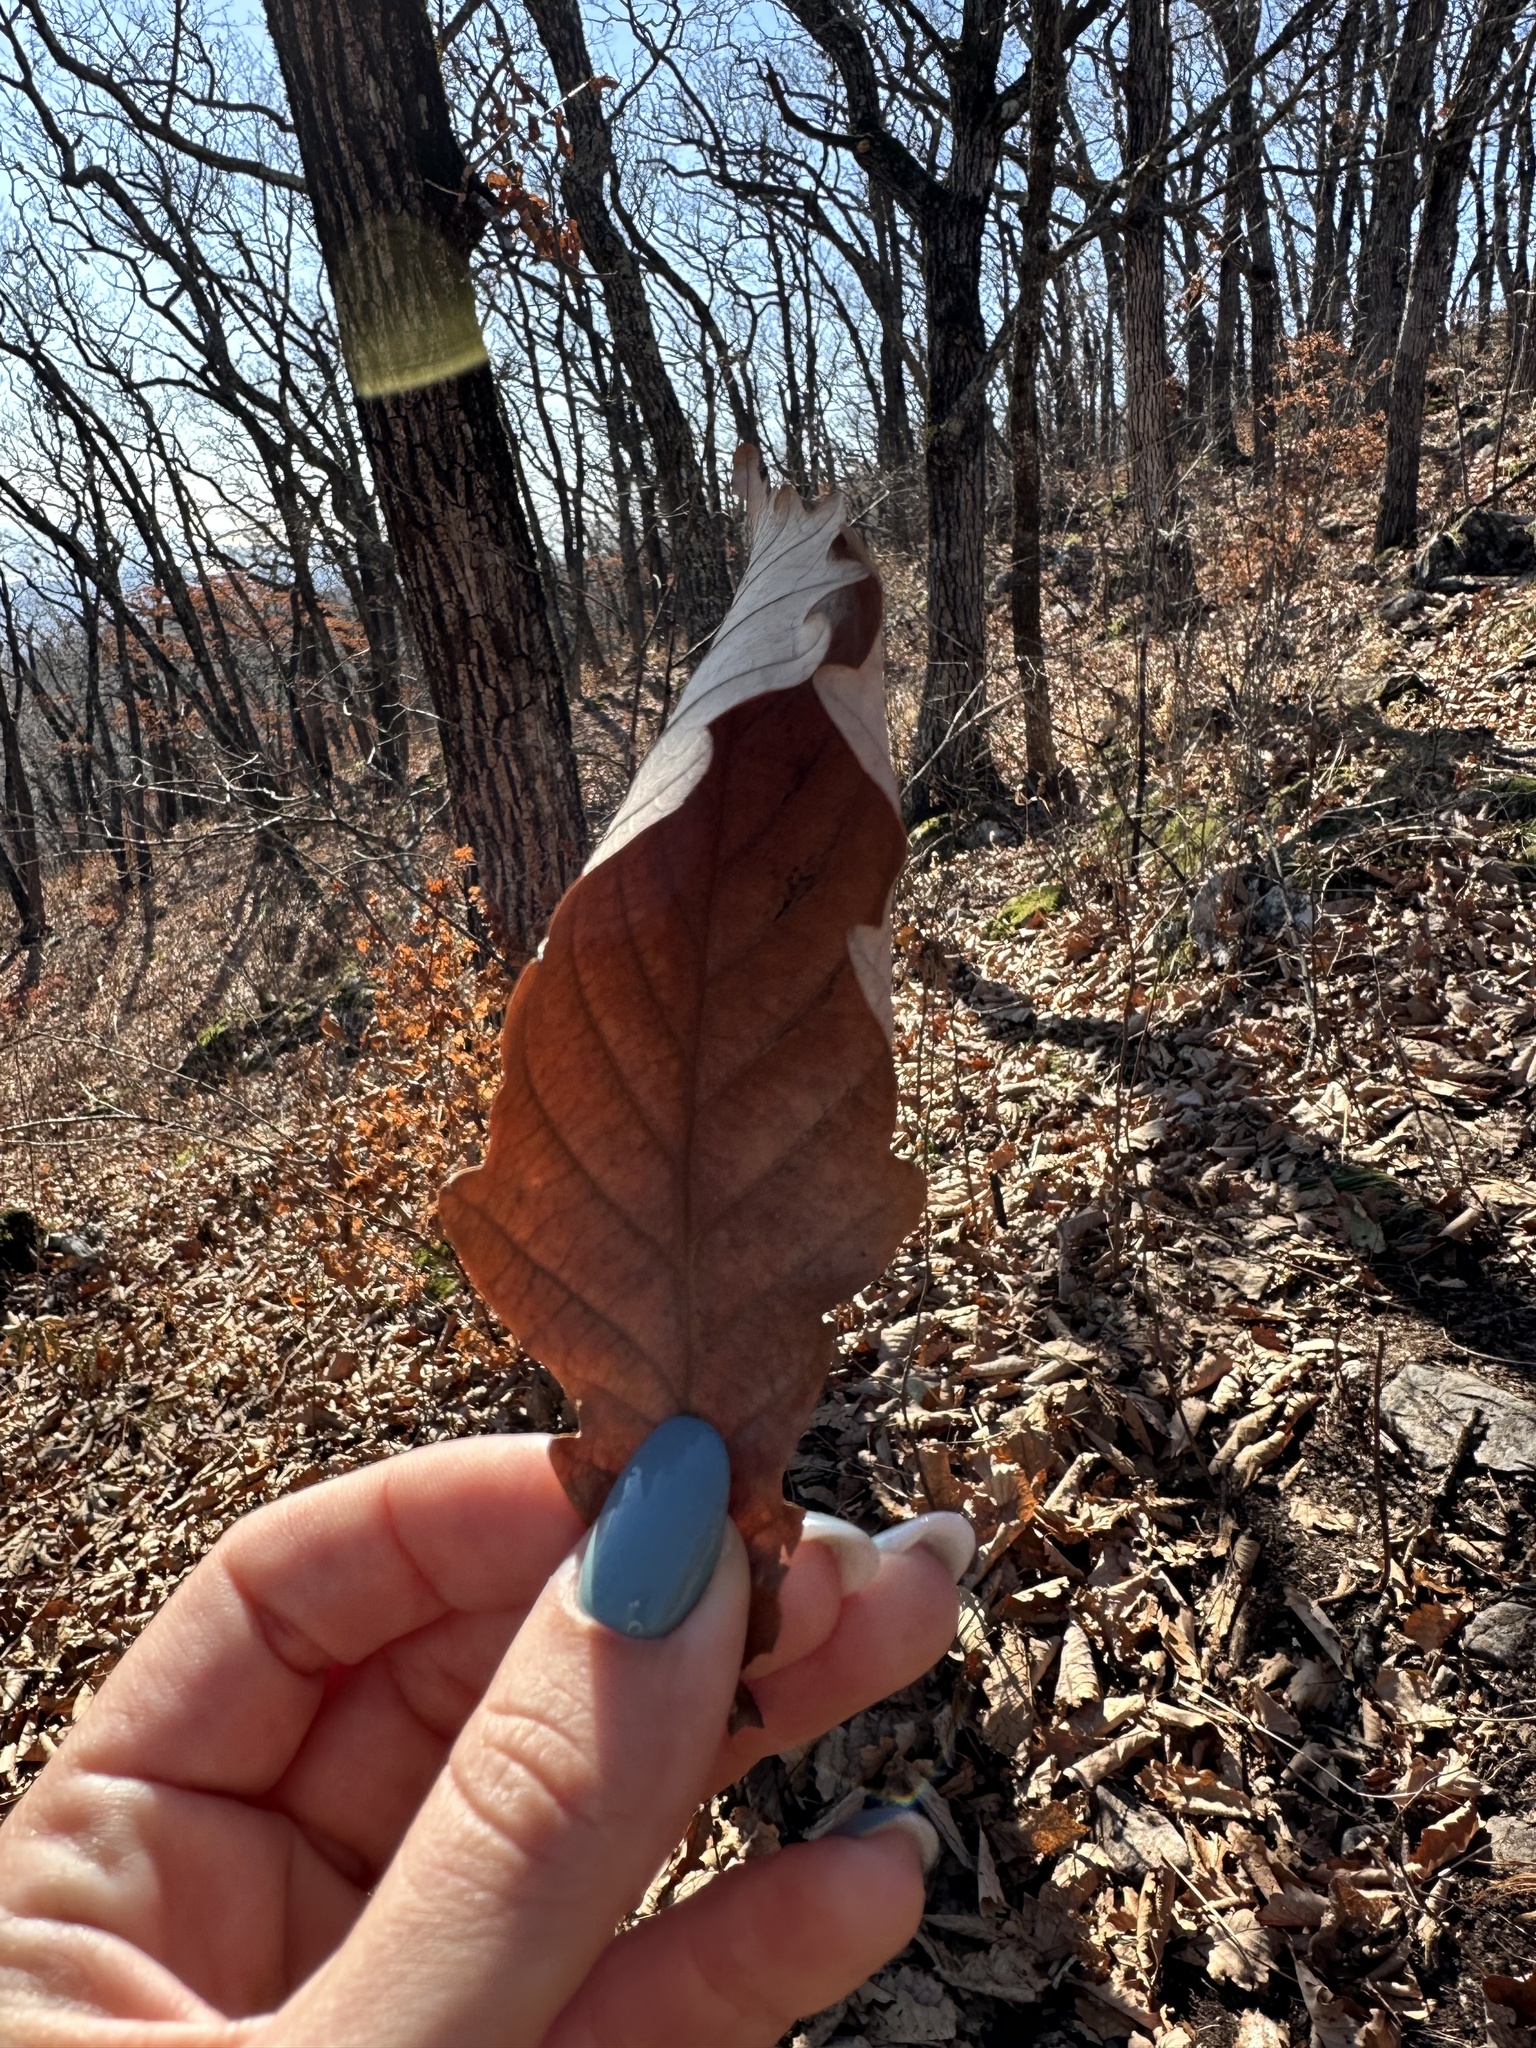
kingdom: Plantae
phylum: Tracheophyta
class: Magnoliopsida
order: Fagales
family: Fagaceae
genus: Quercus
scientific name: Quercus mongolica
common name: Mongolian oak
